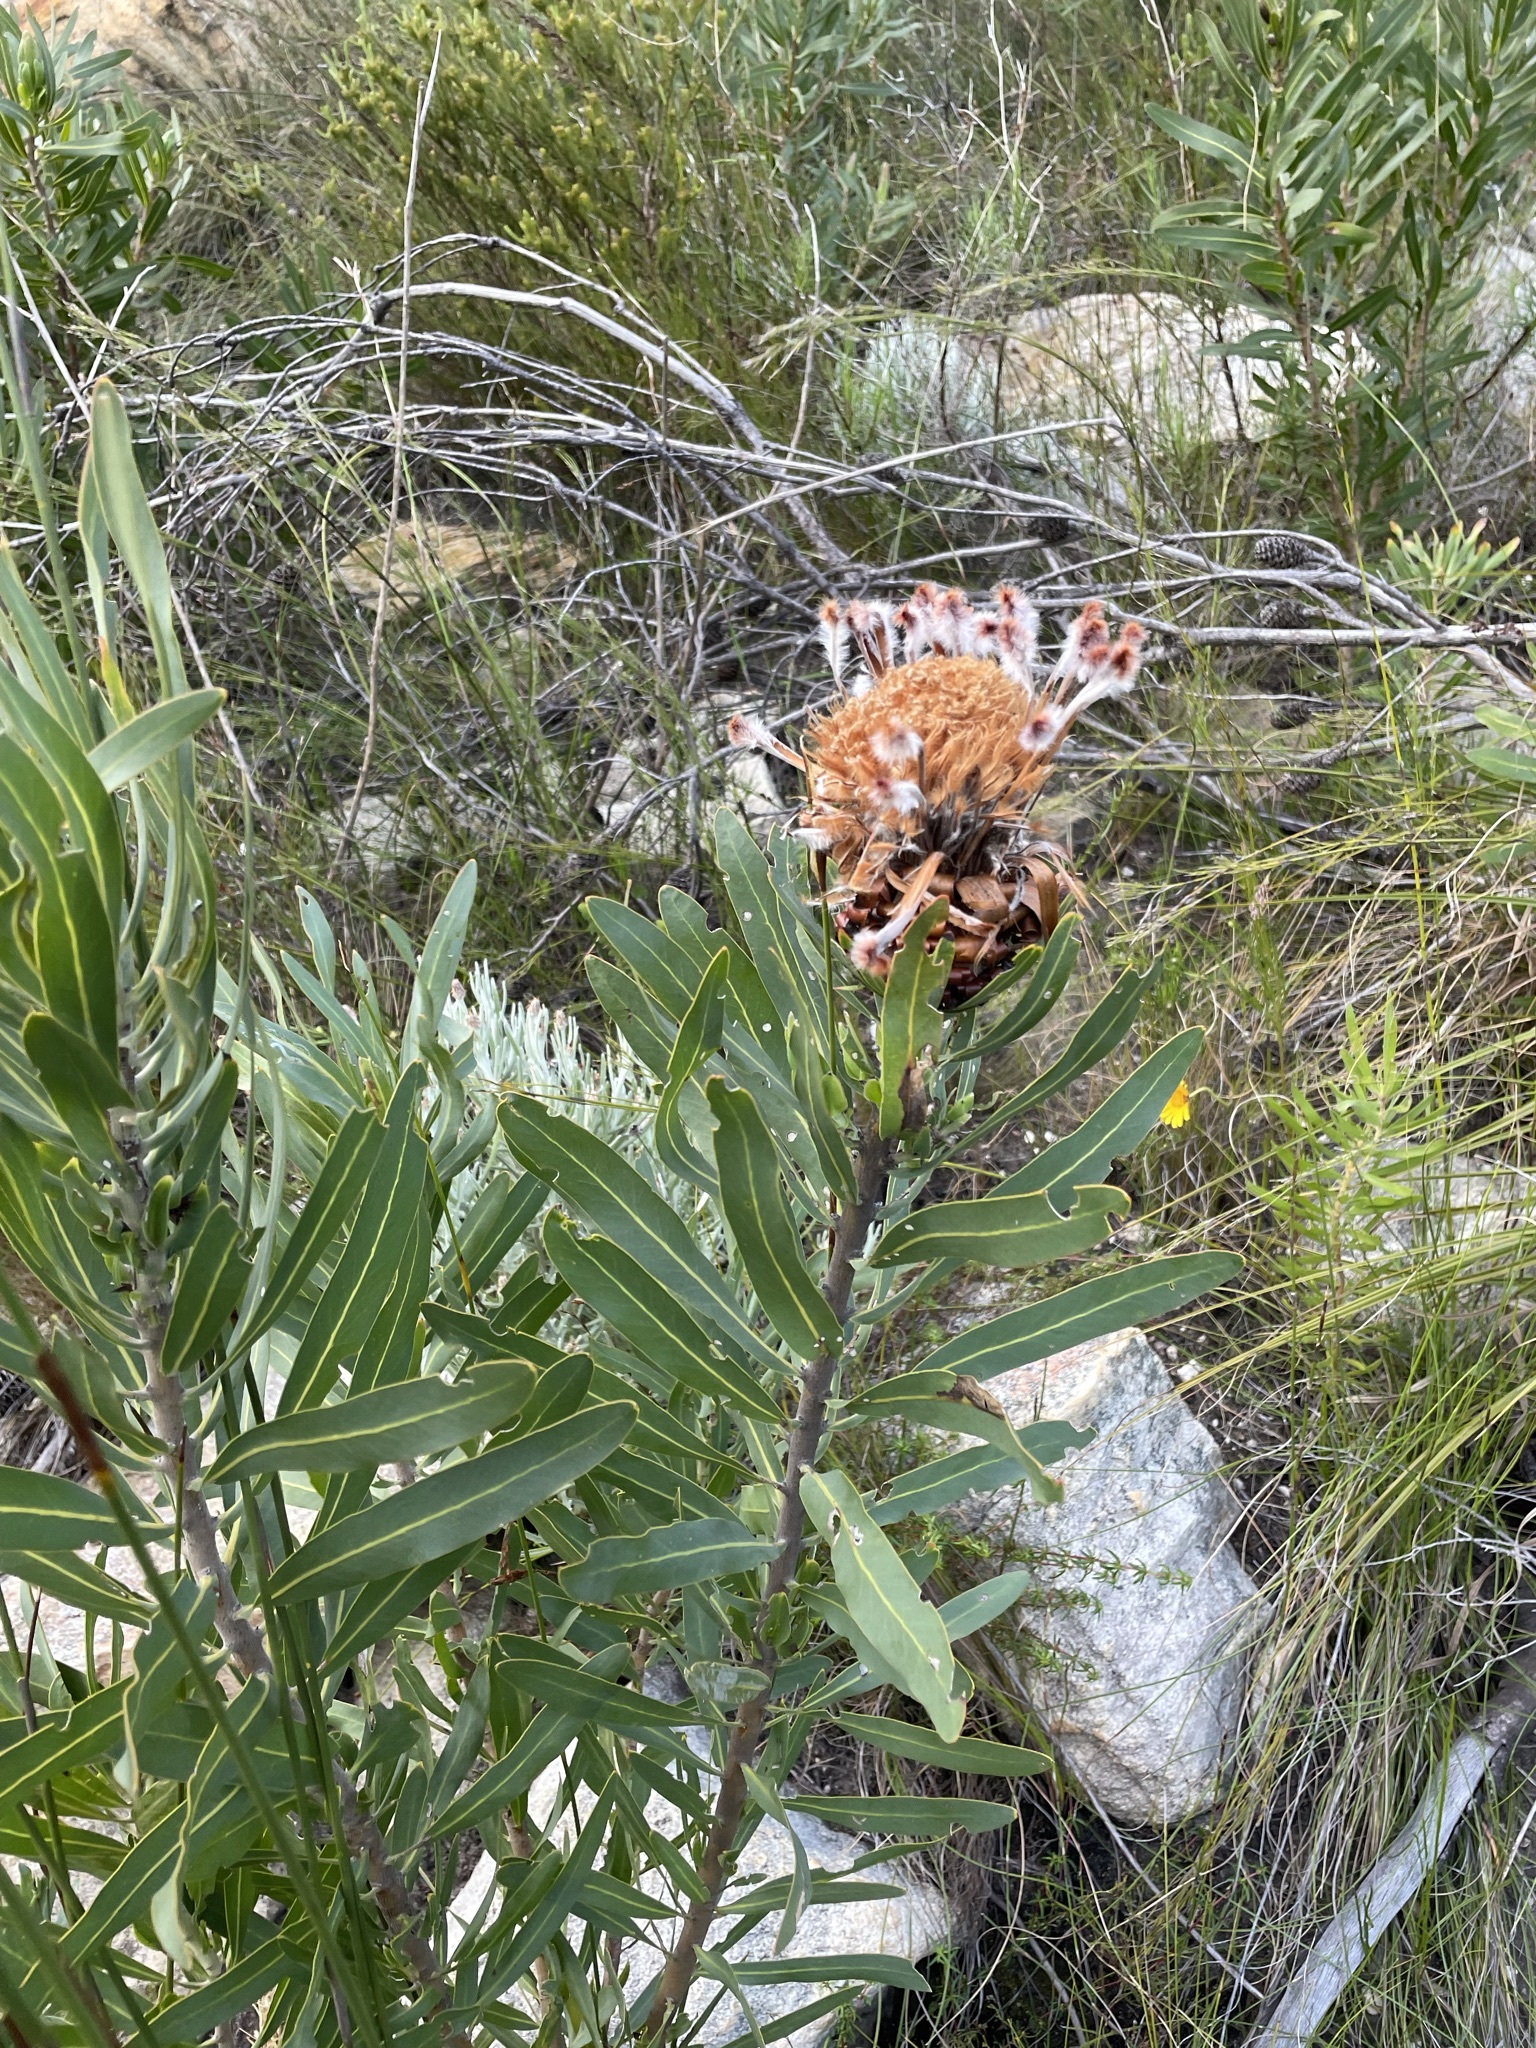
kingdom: Plantae
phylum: Tracheophyta
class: Magnoliopsida
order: Proteales
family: Proteaceae
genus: Protea
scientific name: Protea neriifolia
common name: Blue sugarbush
